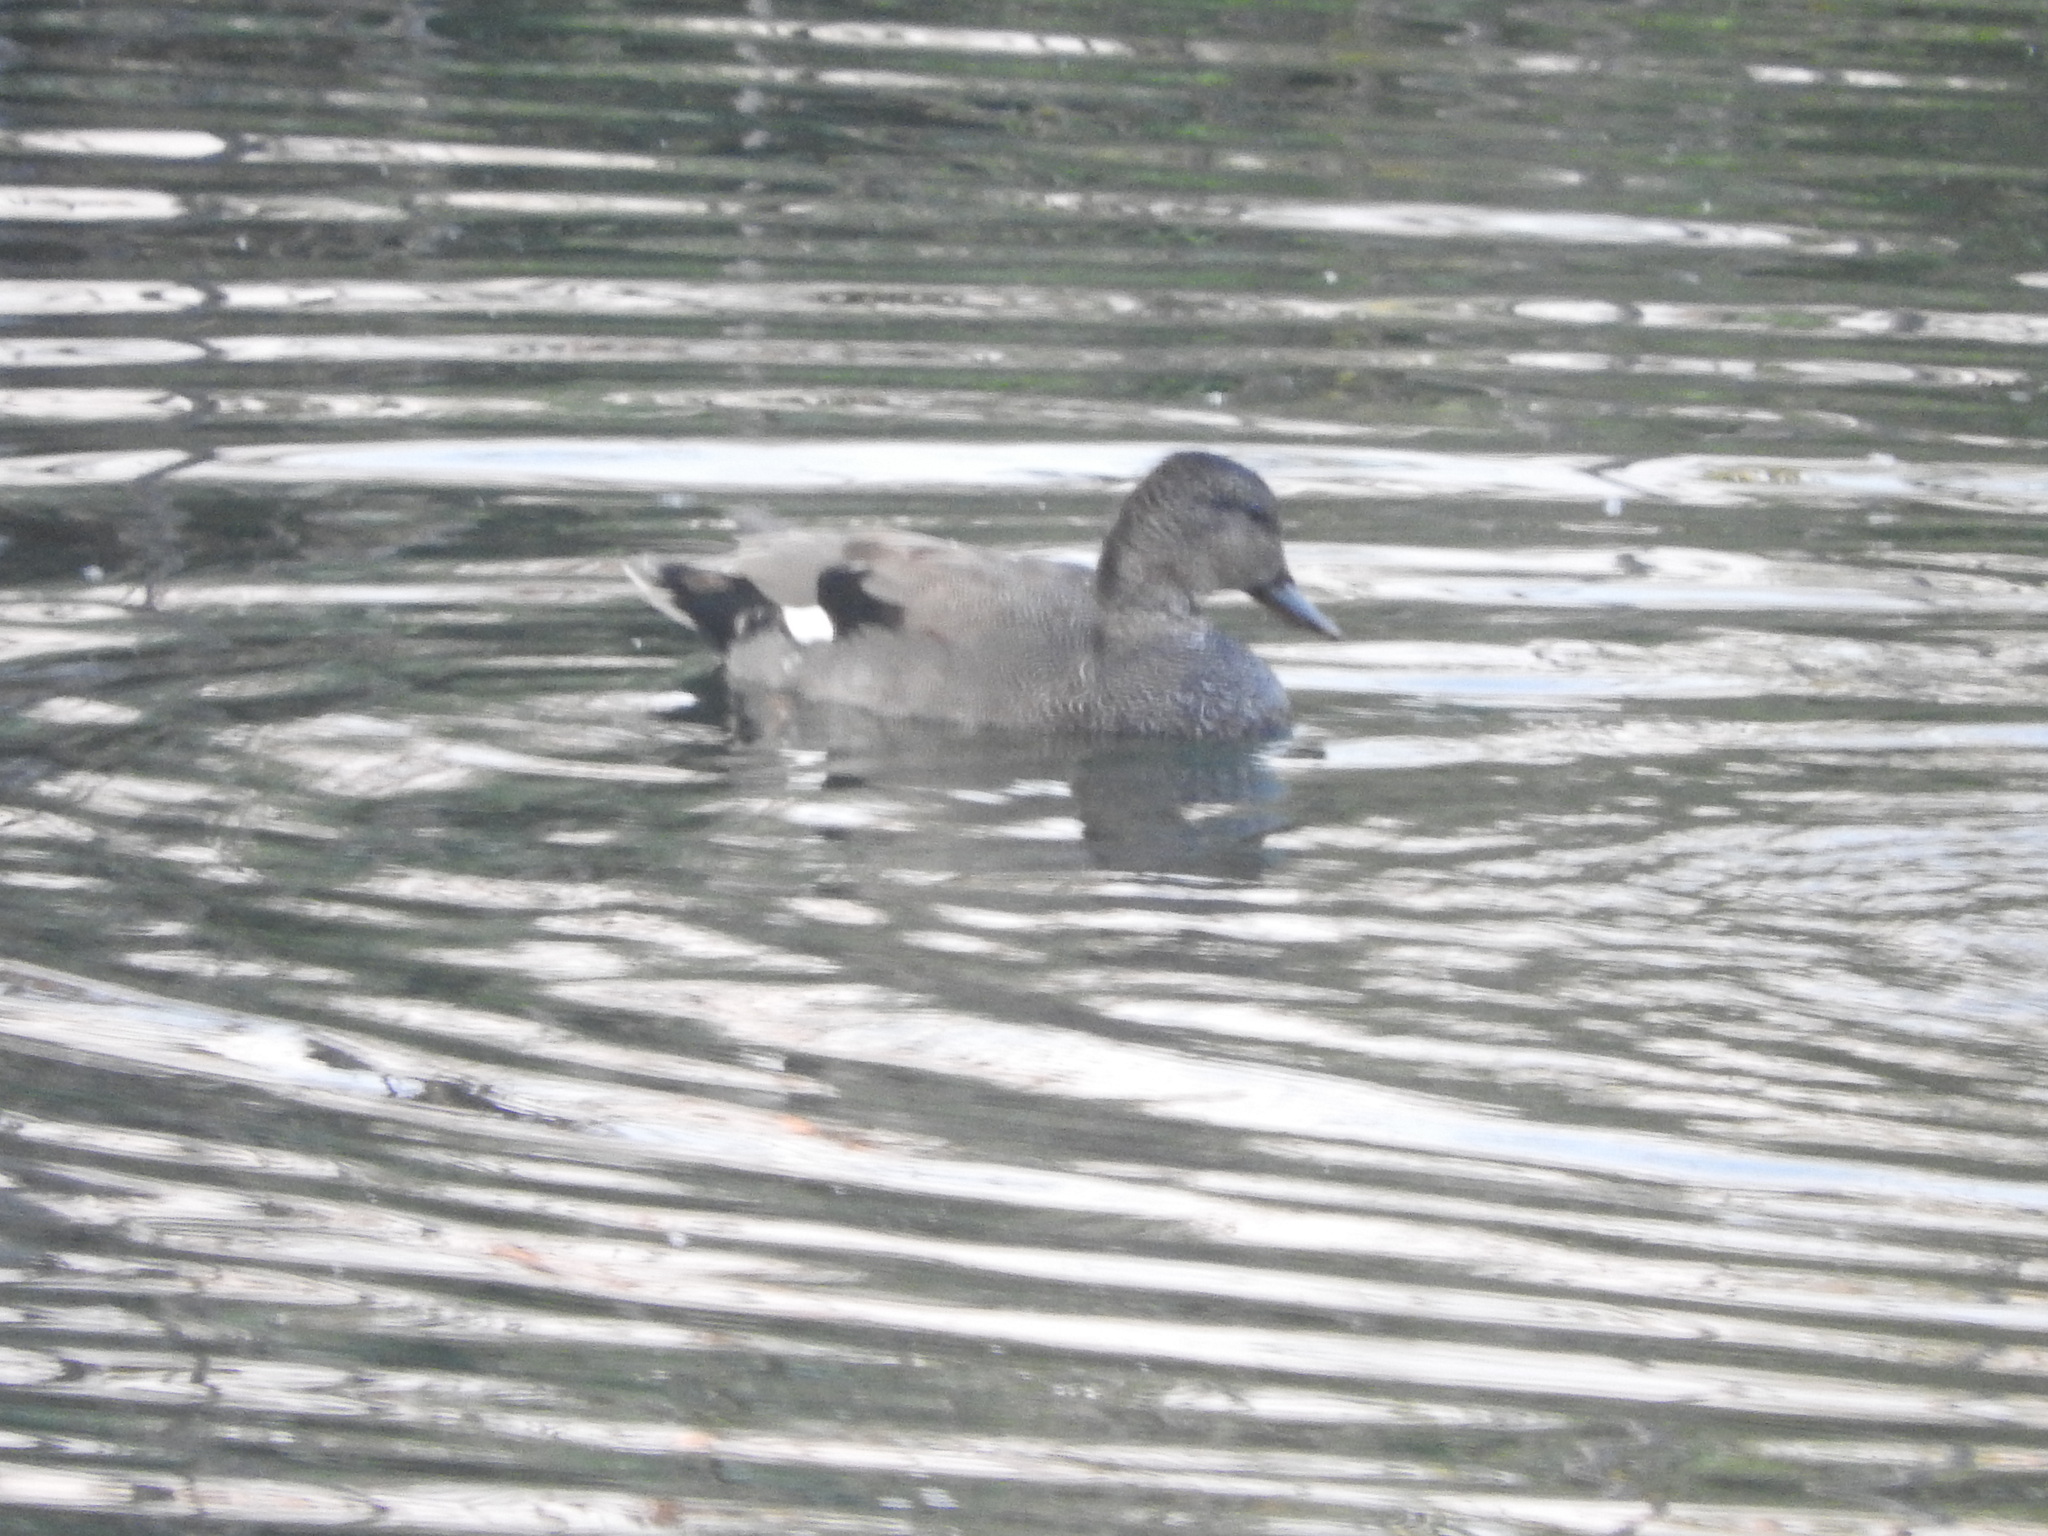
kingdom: Animalia
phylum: Chordata
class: Aves
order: Anseriformes
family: Anatidae
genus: Mareca
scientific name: Mareca strepera
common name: Gadwall
